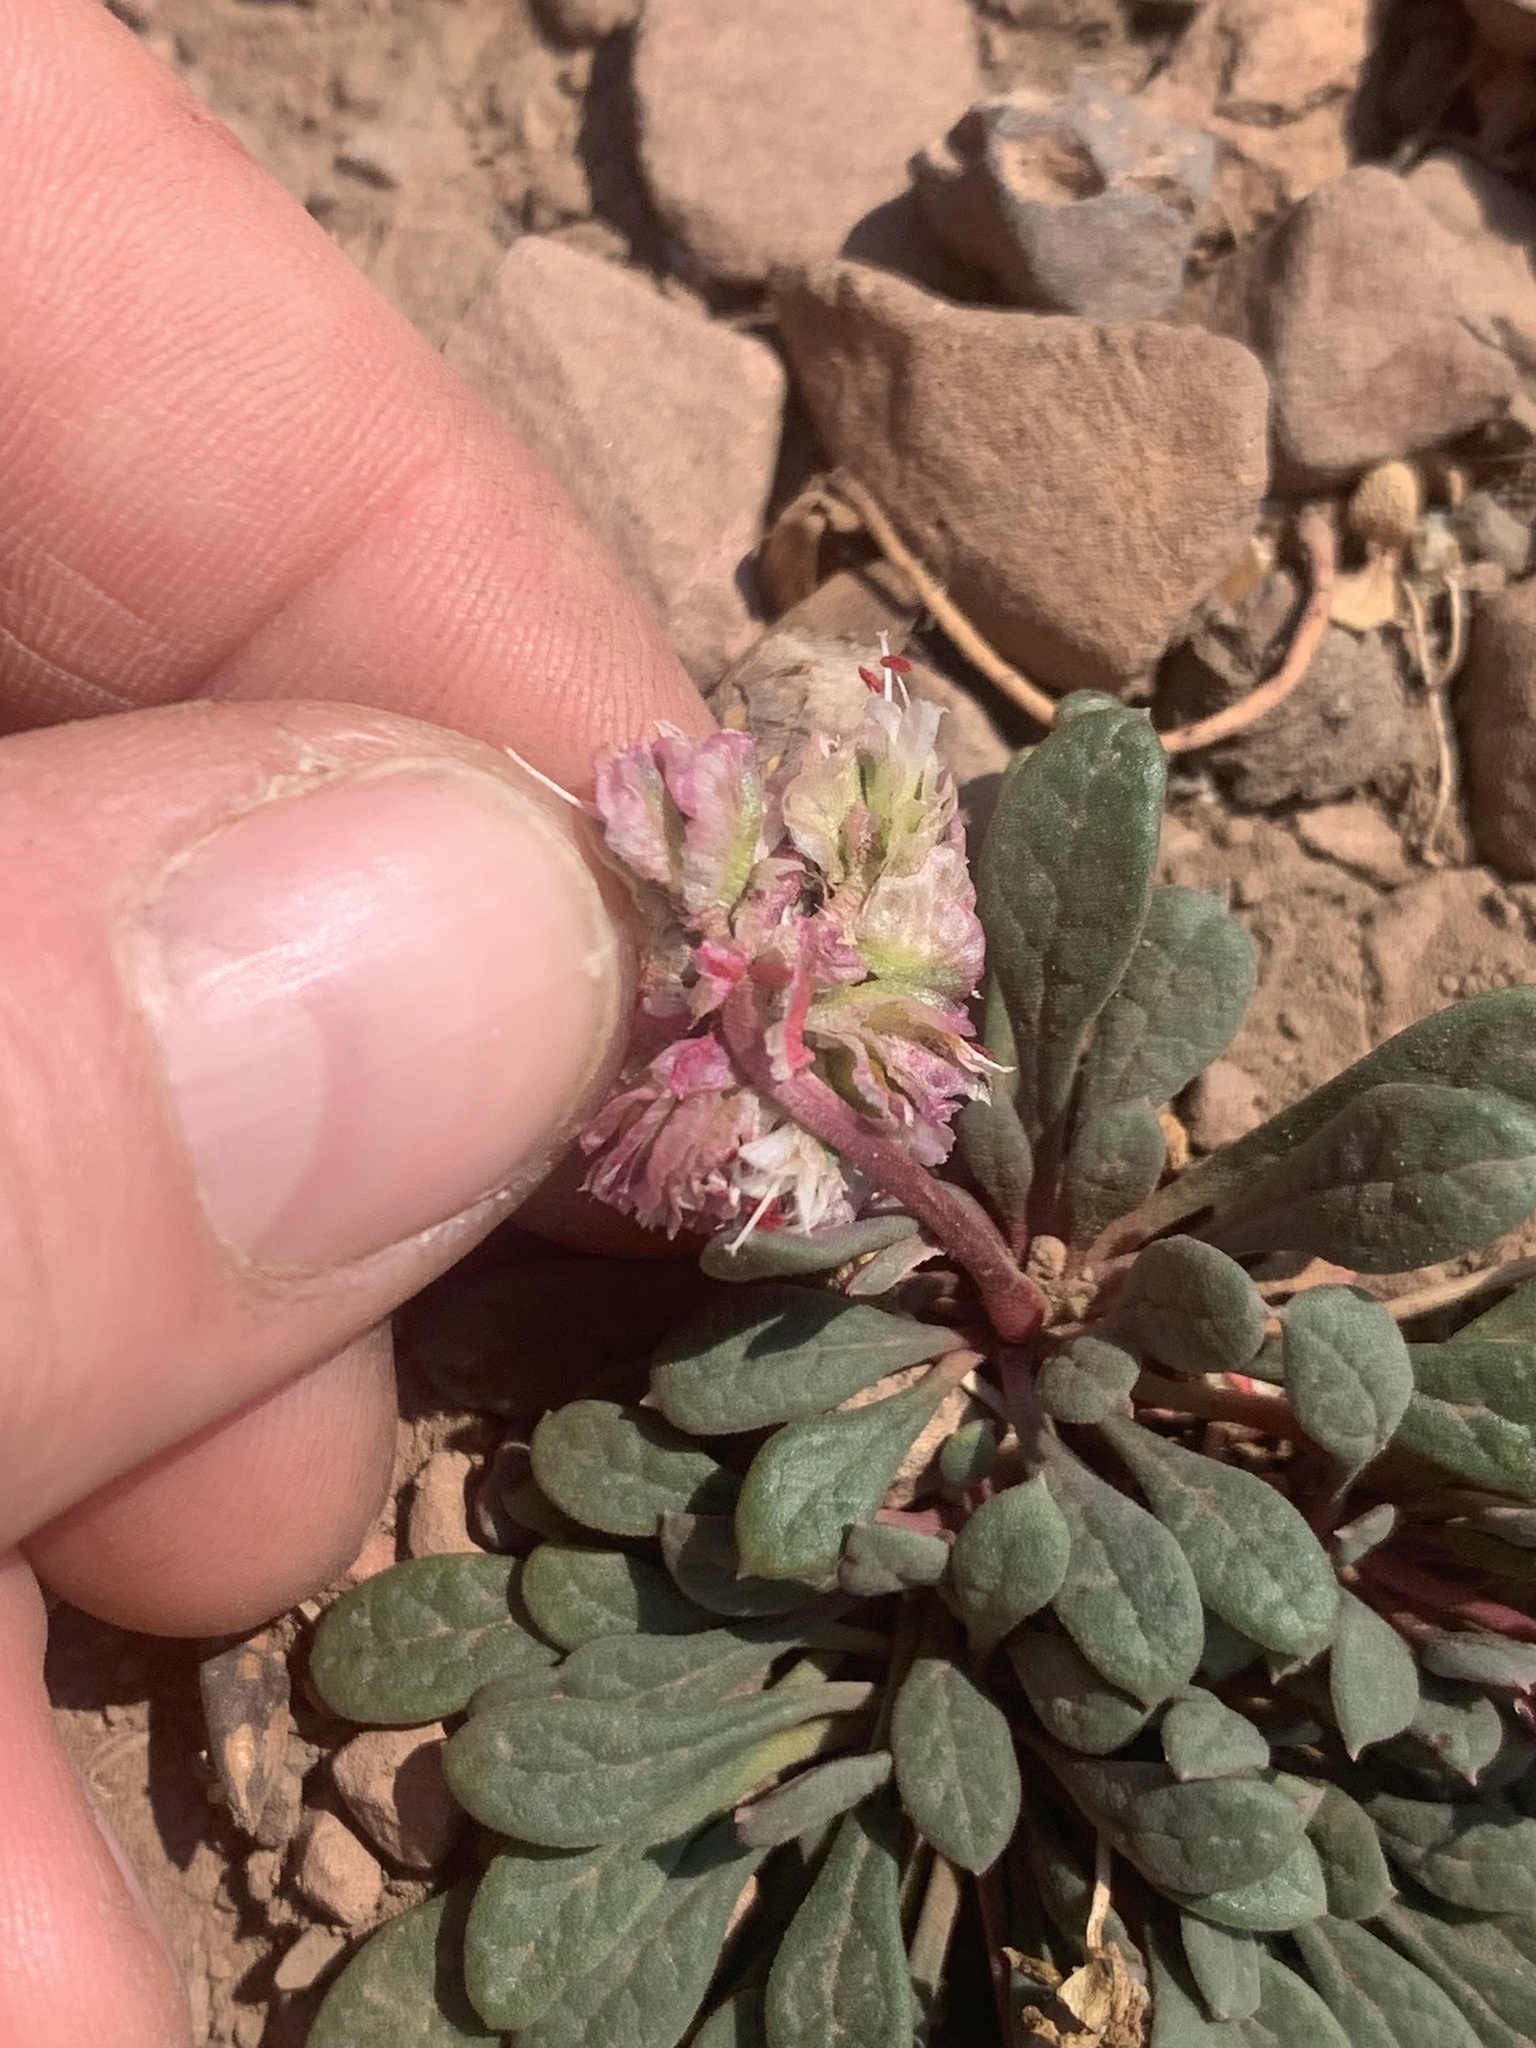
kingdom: Plantae
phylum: Tracheophyta
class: Magnoliopsida
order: Caryophyllales
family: Montiaceae
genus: Calyptridium
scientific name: Calyptridium umbellatum
